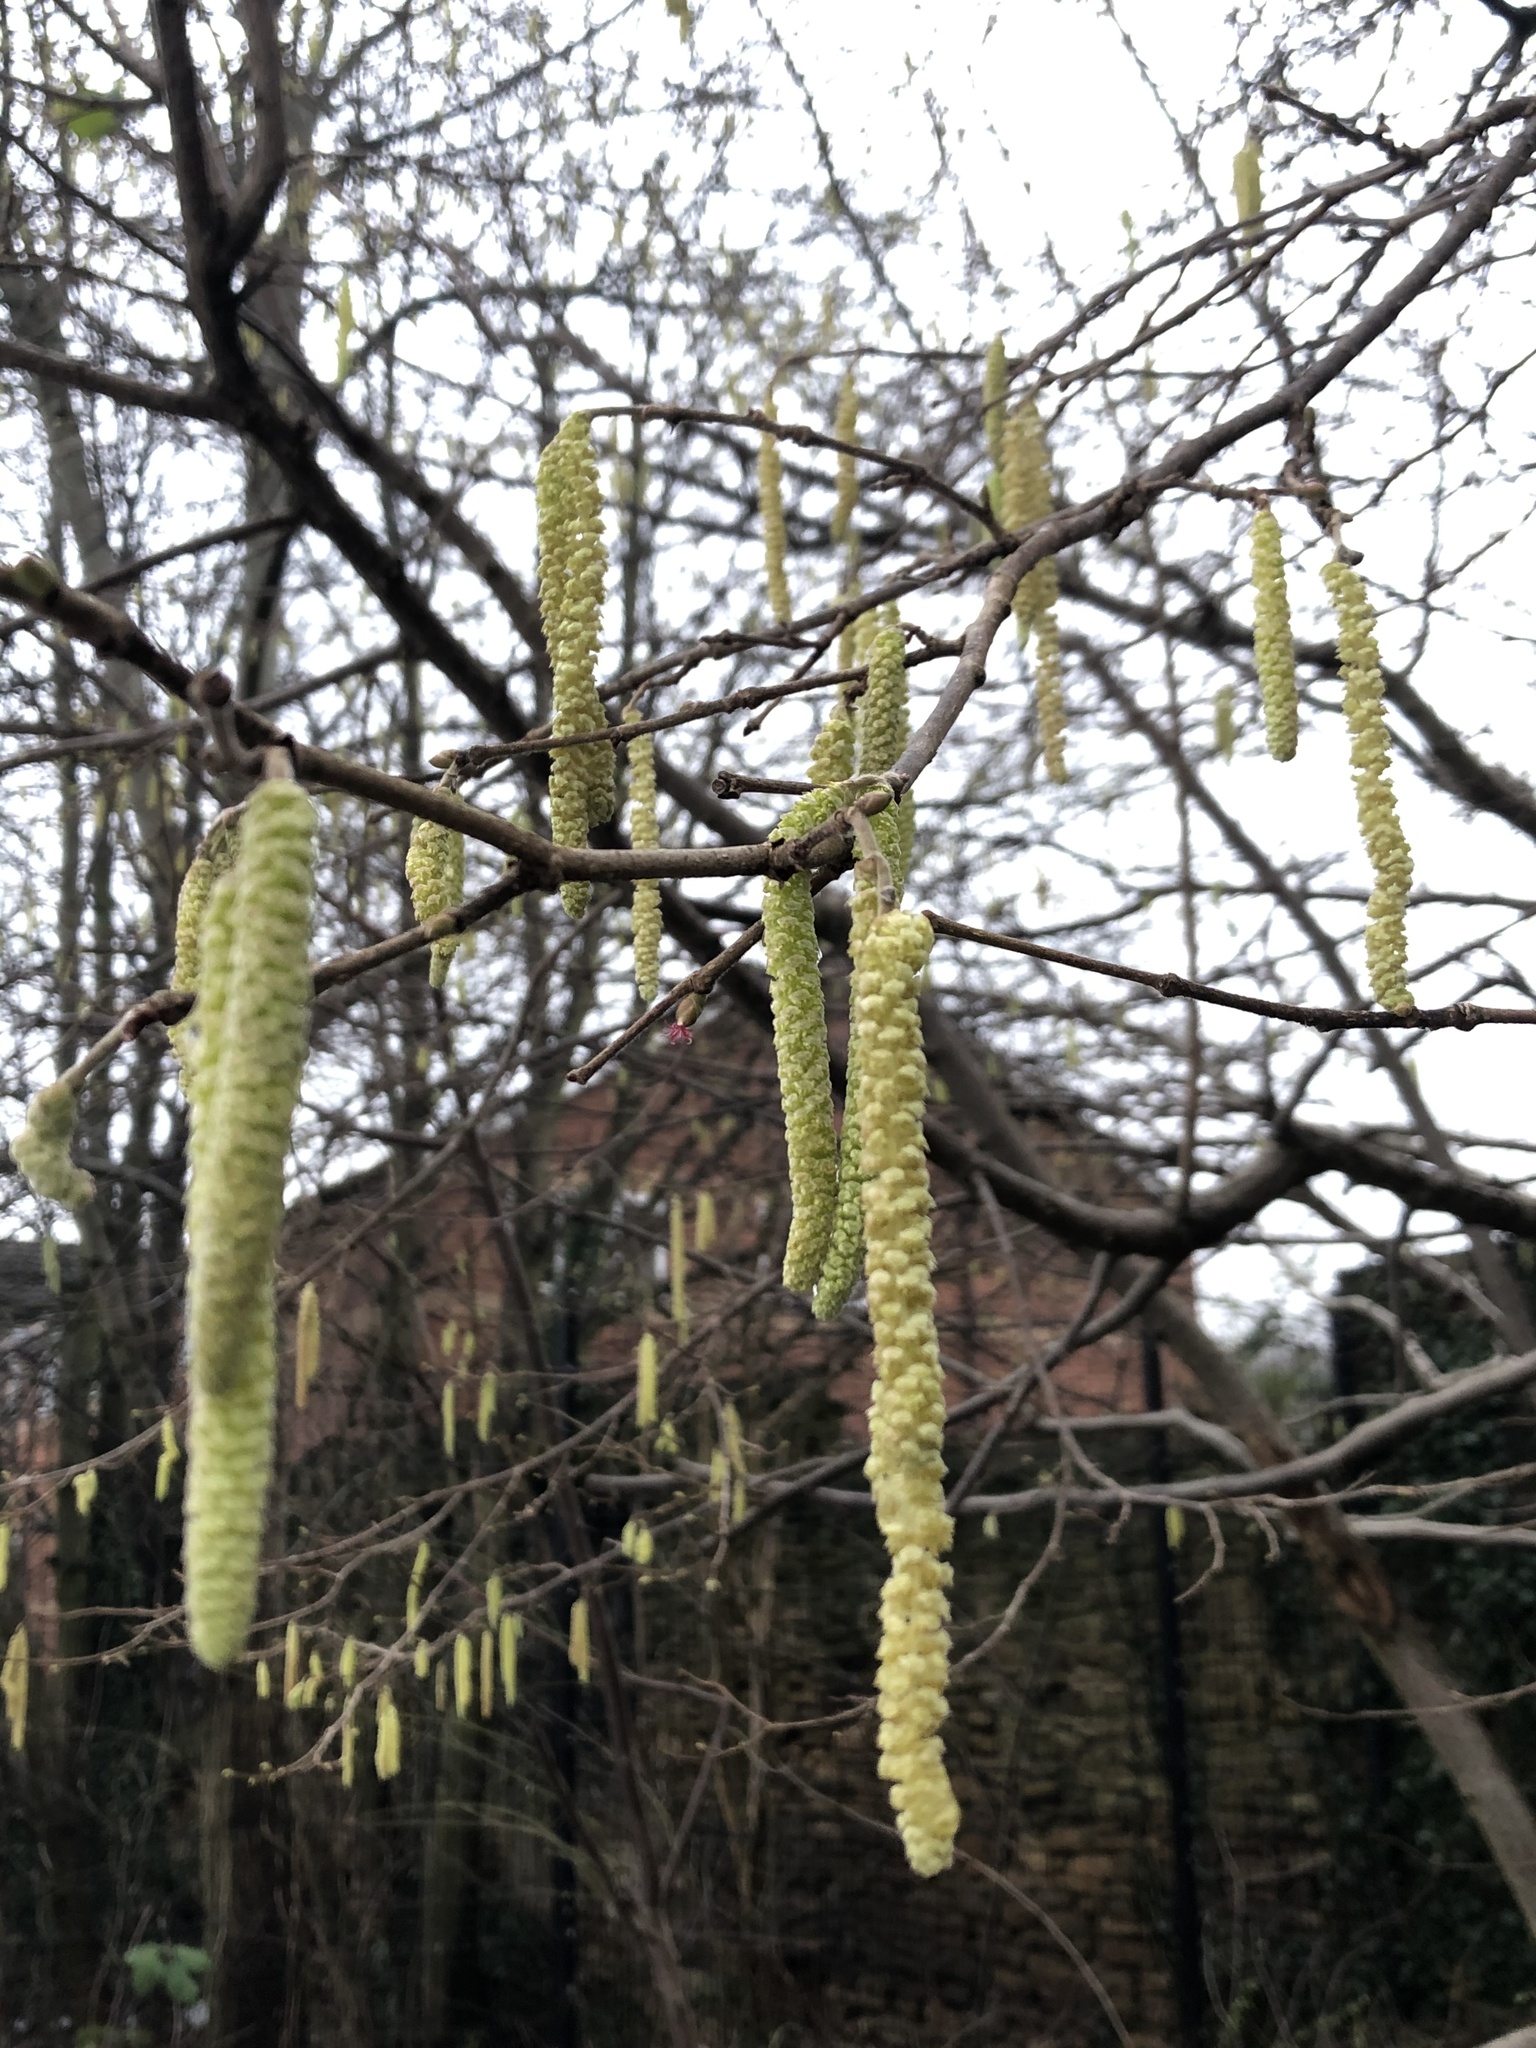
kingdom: Plantae
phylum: Tracheophyta
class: Magnoliopsida
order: Fagales
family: Betulaceae
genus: Corylus
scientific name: Corylus avellana
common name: European hazel
